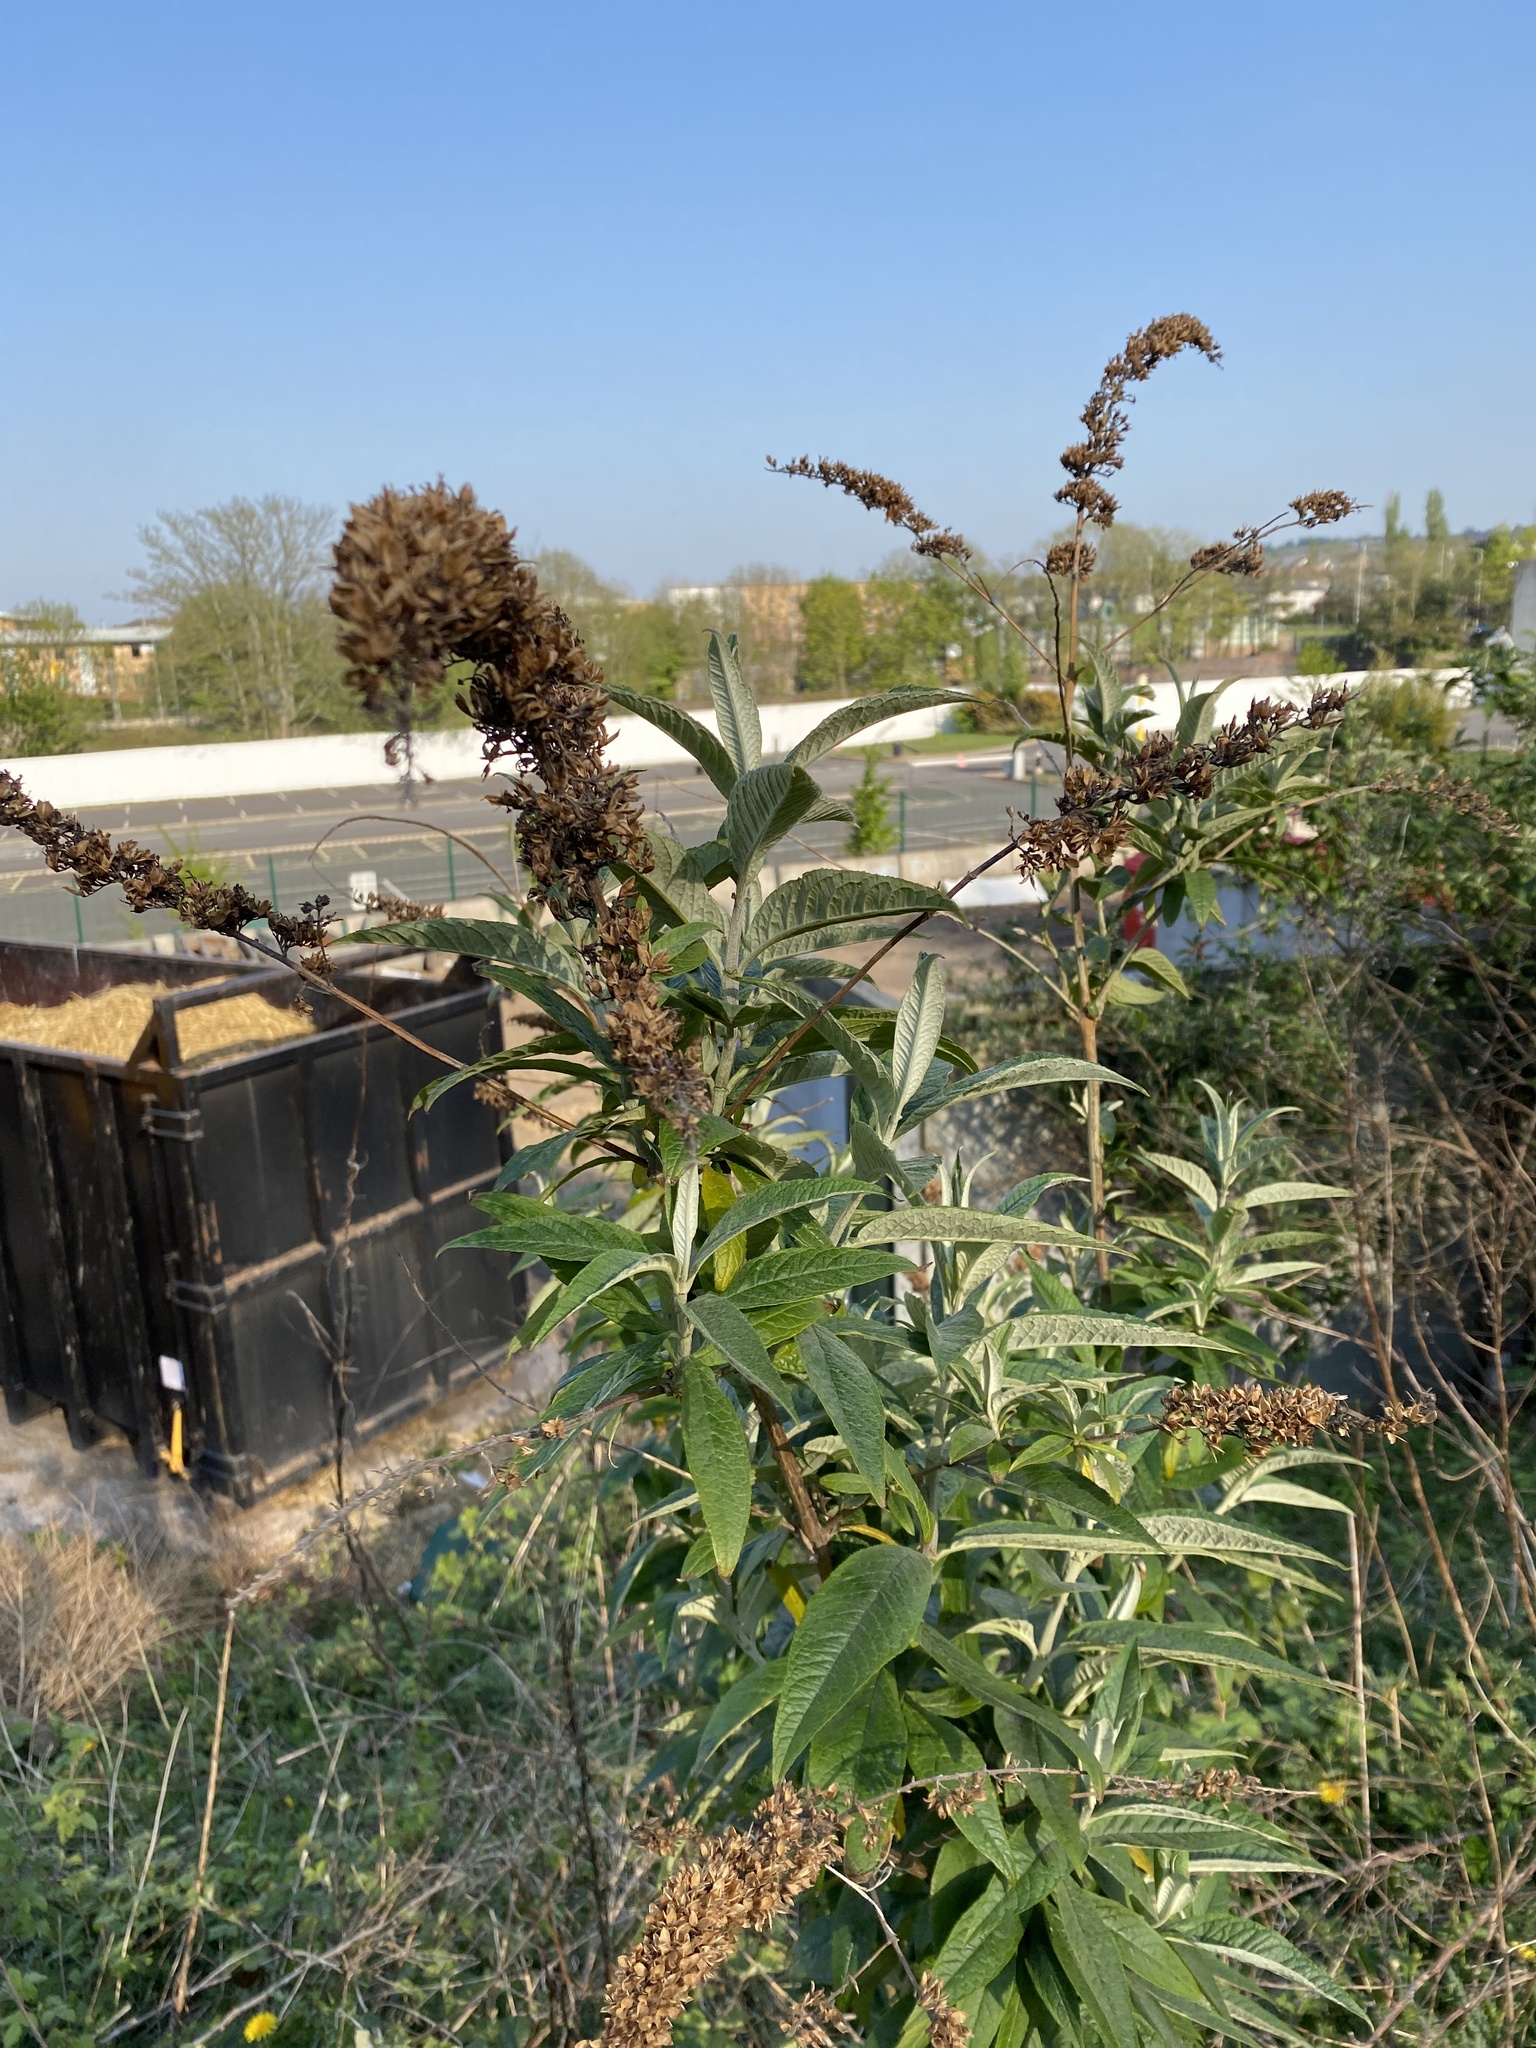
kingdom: Plantae
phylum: Tracheophyta
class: Magnoliopsida
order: Lamiales
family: Scrophulariaceae
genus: Buddleja
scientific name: Buddleja davidii
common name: Butterfly-bush
